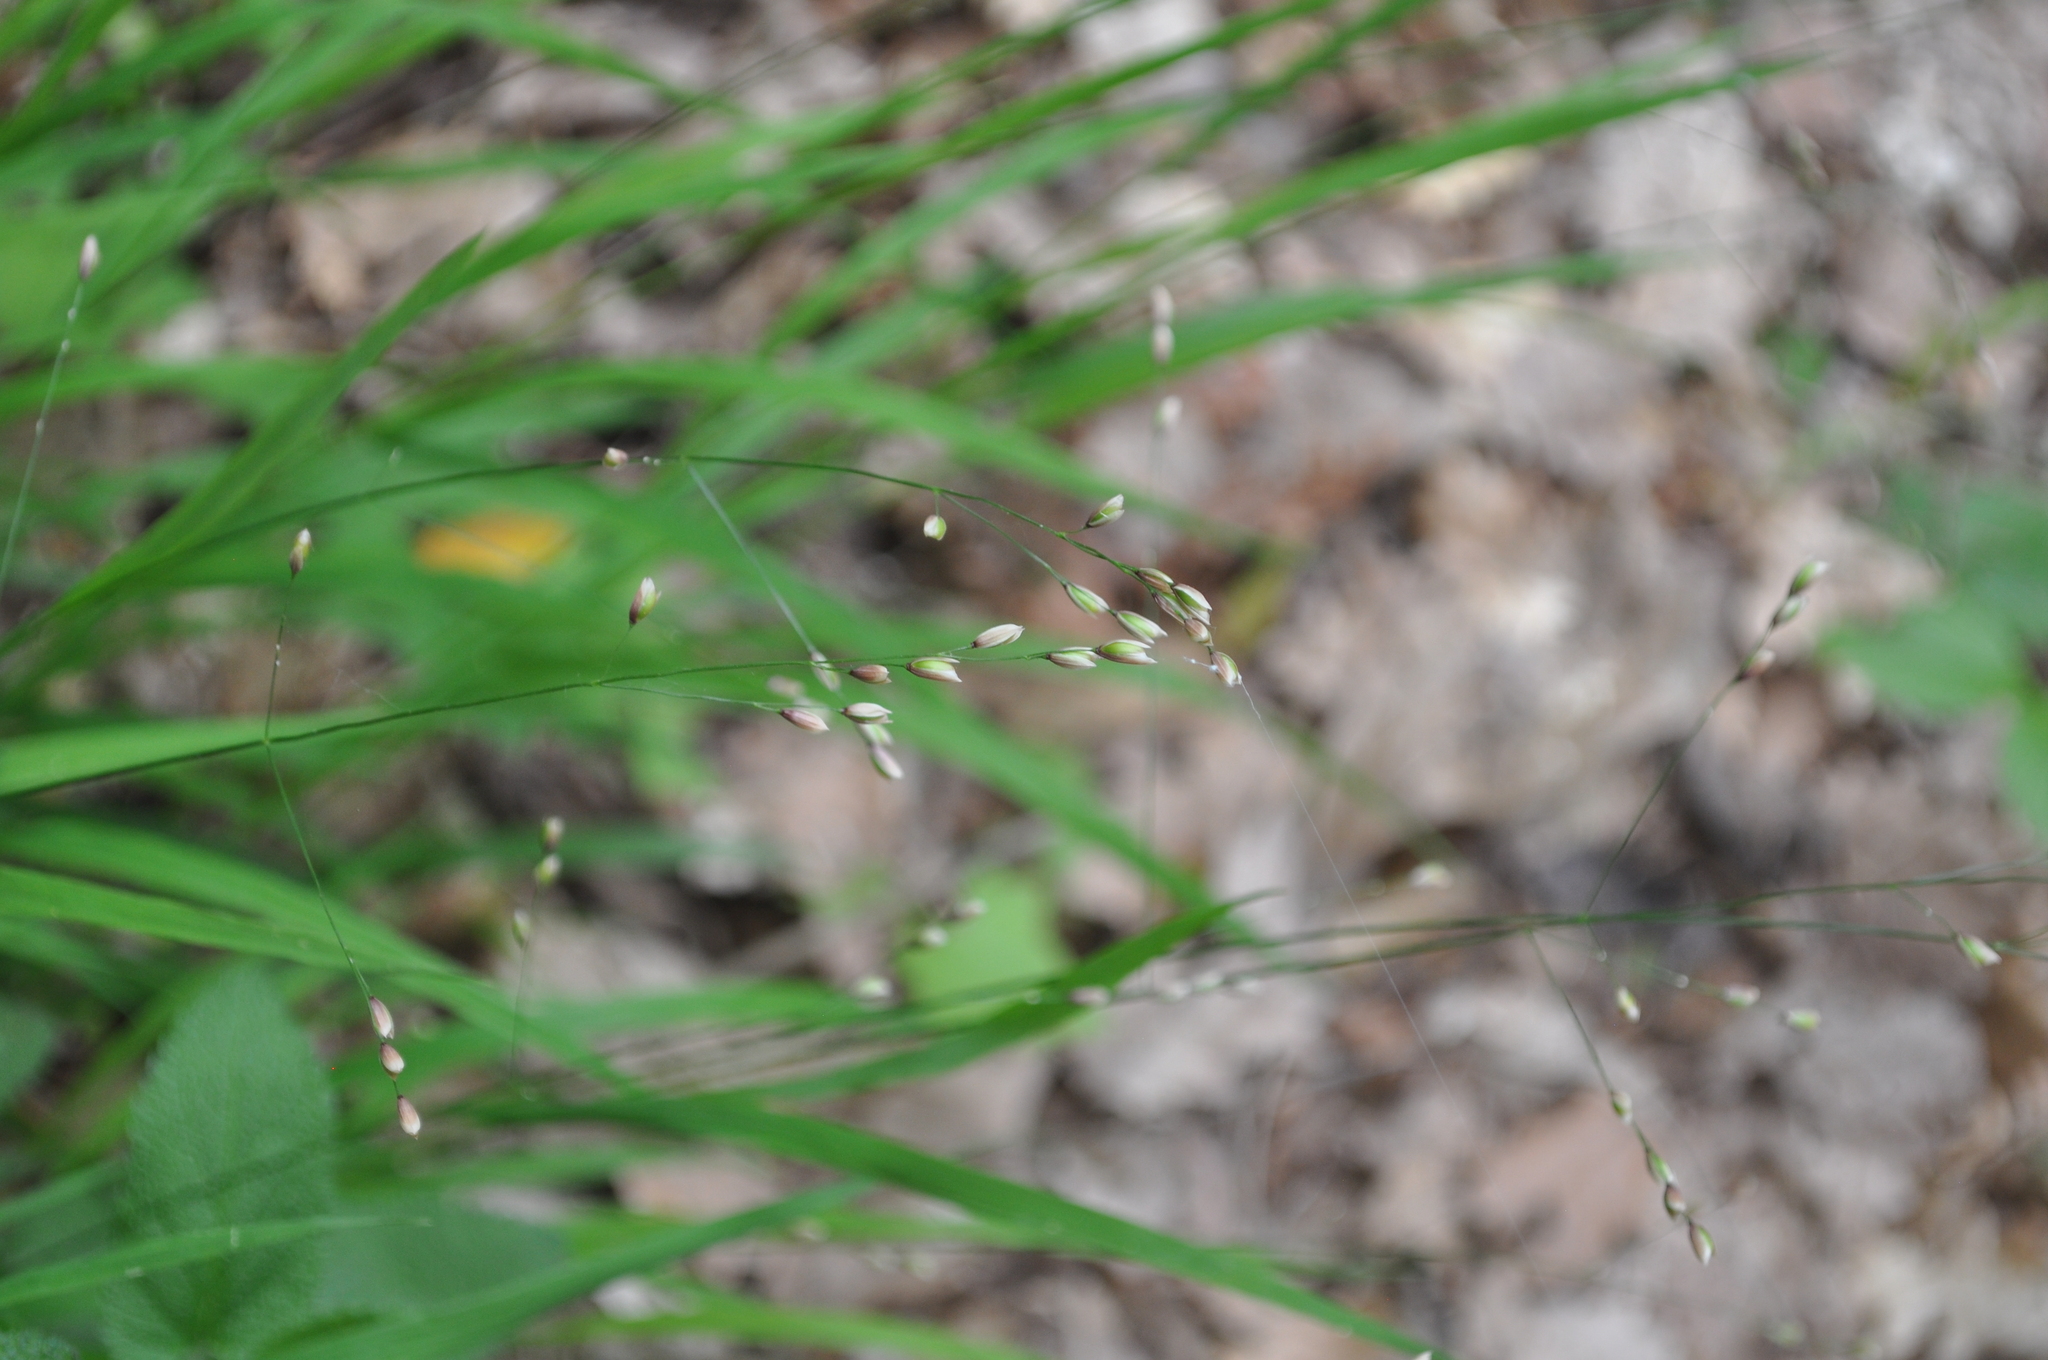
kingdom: Plantae
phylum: Tracheophyta
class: Liliopsida
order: Poales
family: Poaceae
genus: Melica
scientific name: Melica uniflora
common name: Wood melick
